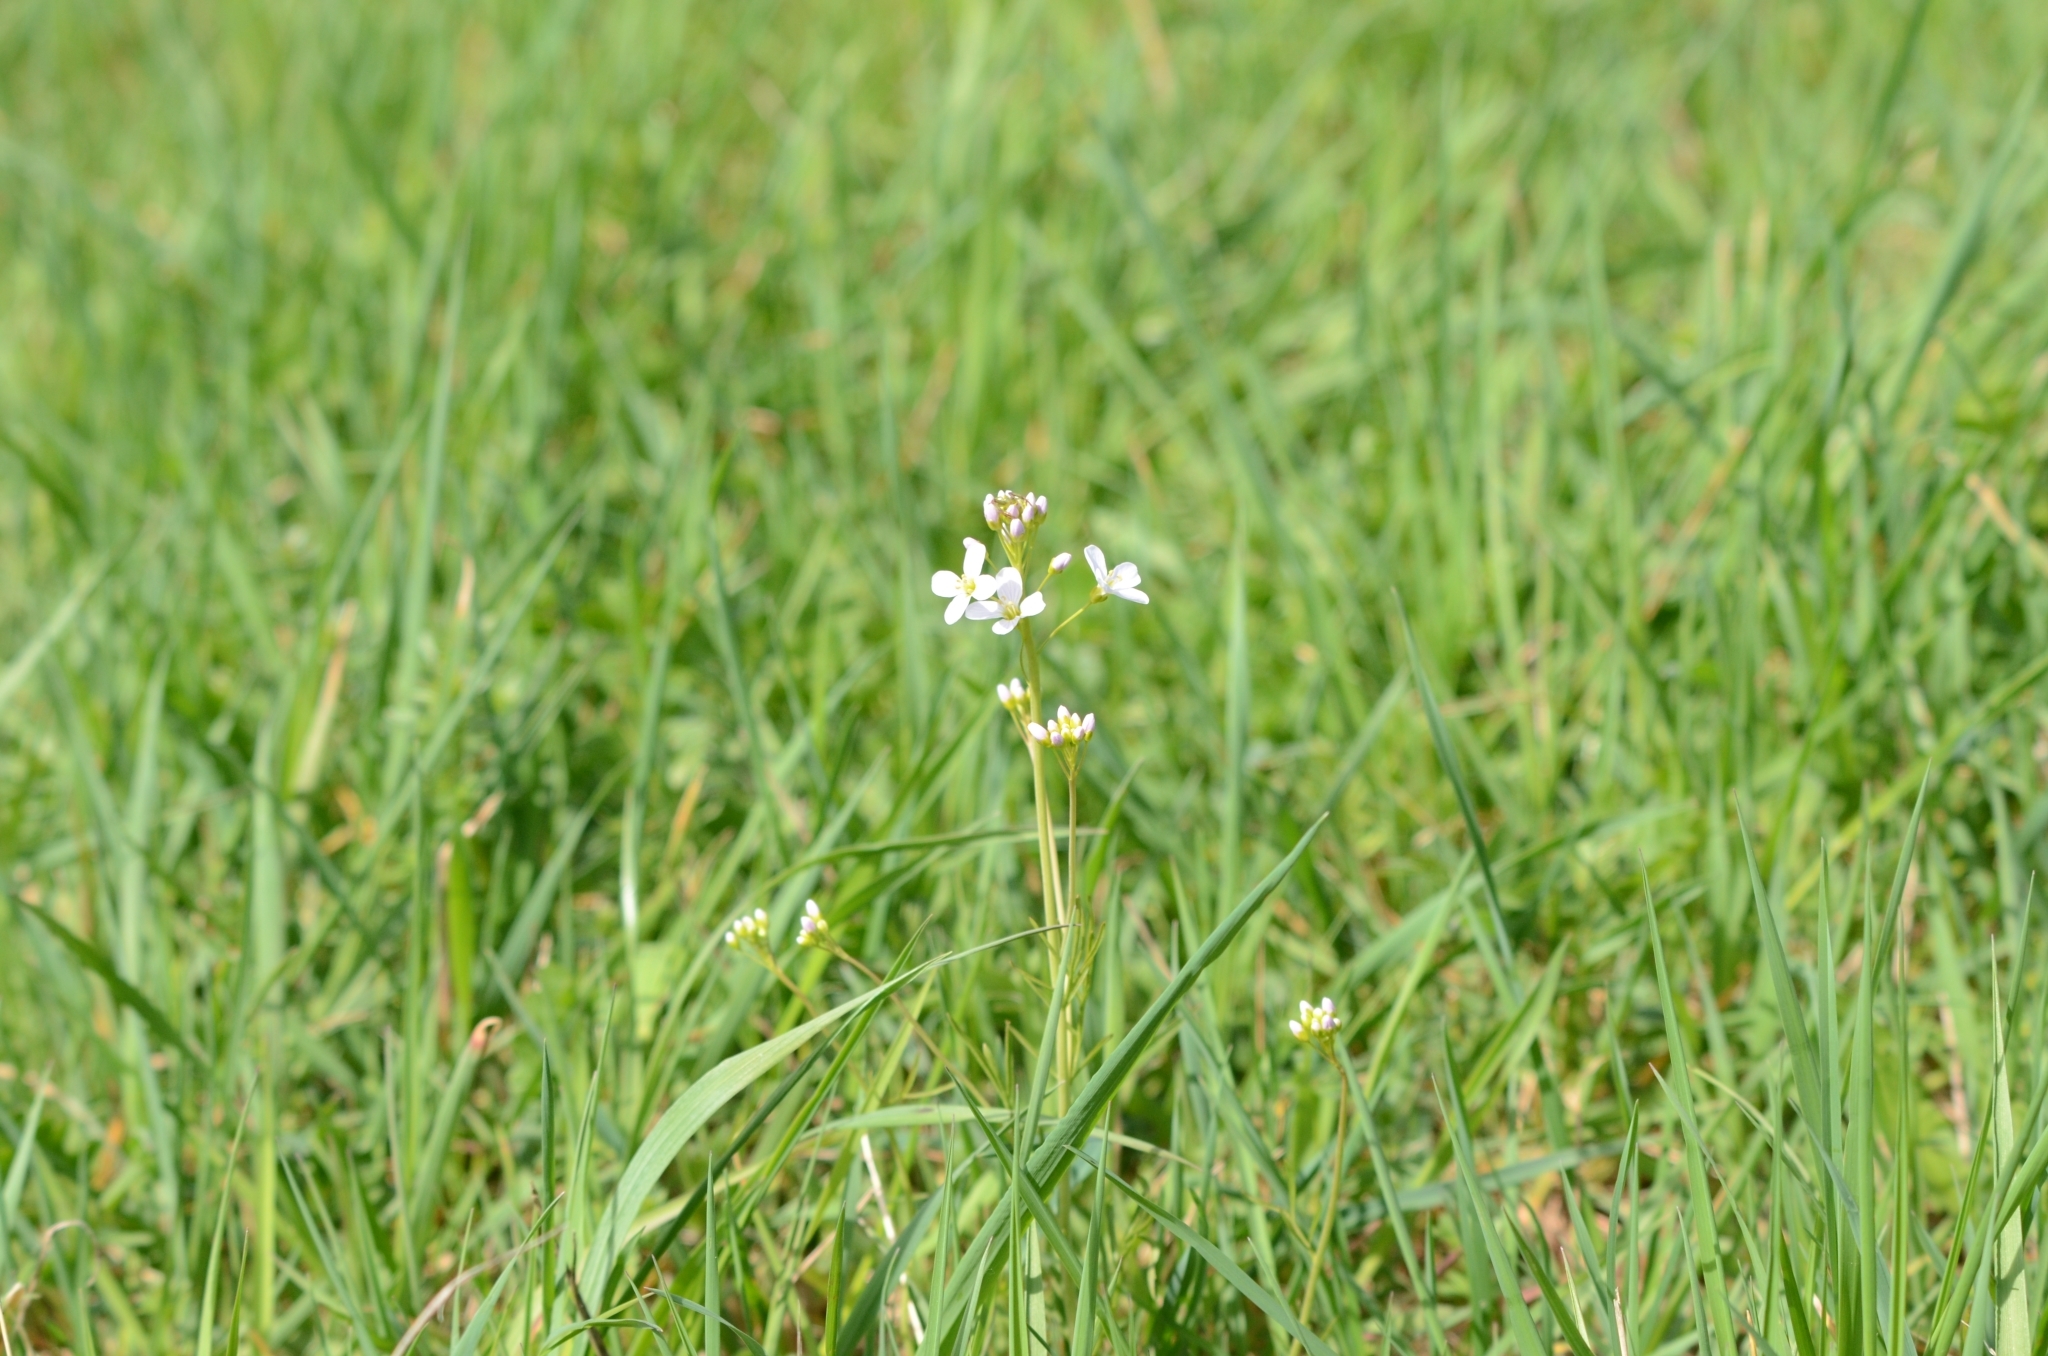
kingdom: Plantae
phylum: Tracheophyta
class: Magnoliopsida
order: Brassicales
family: Brassicaceae
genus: Cardamine
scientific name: Cardamine pratensis
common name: Cuckoo flower
